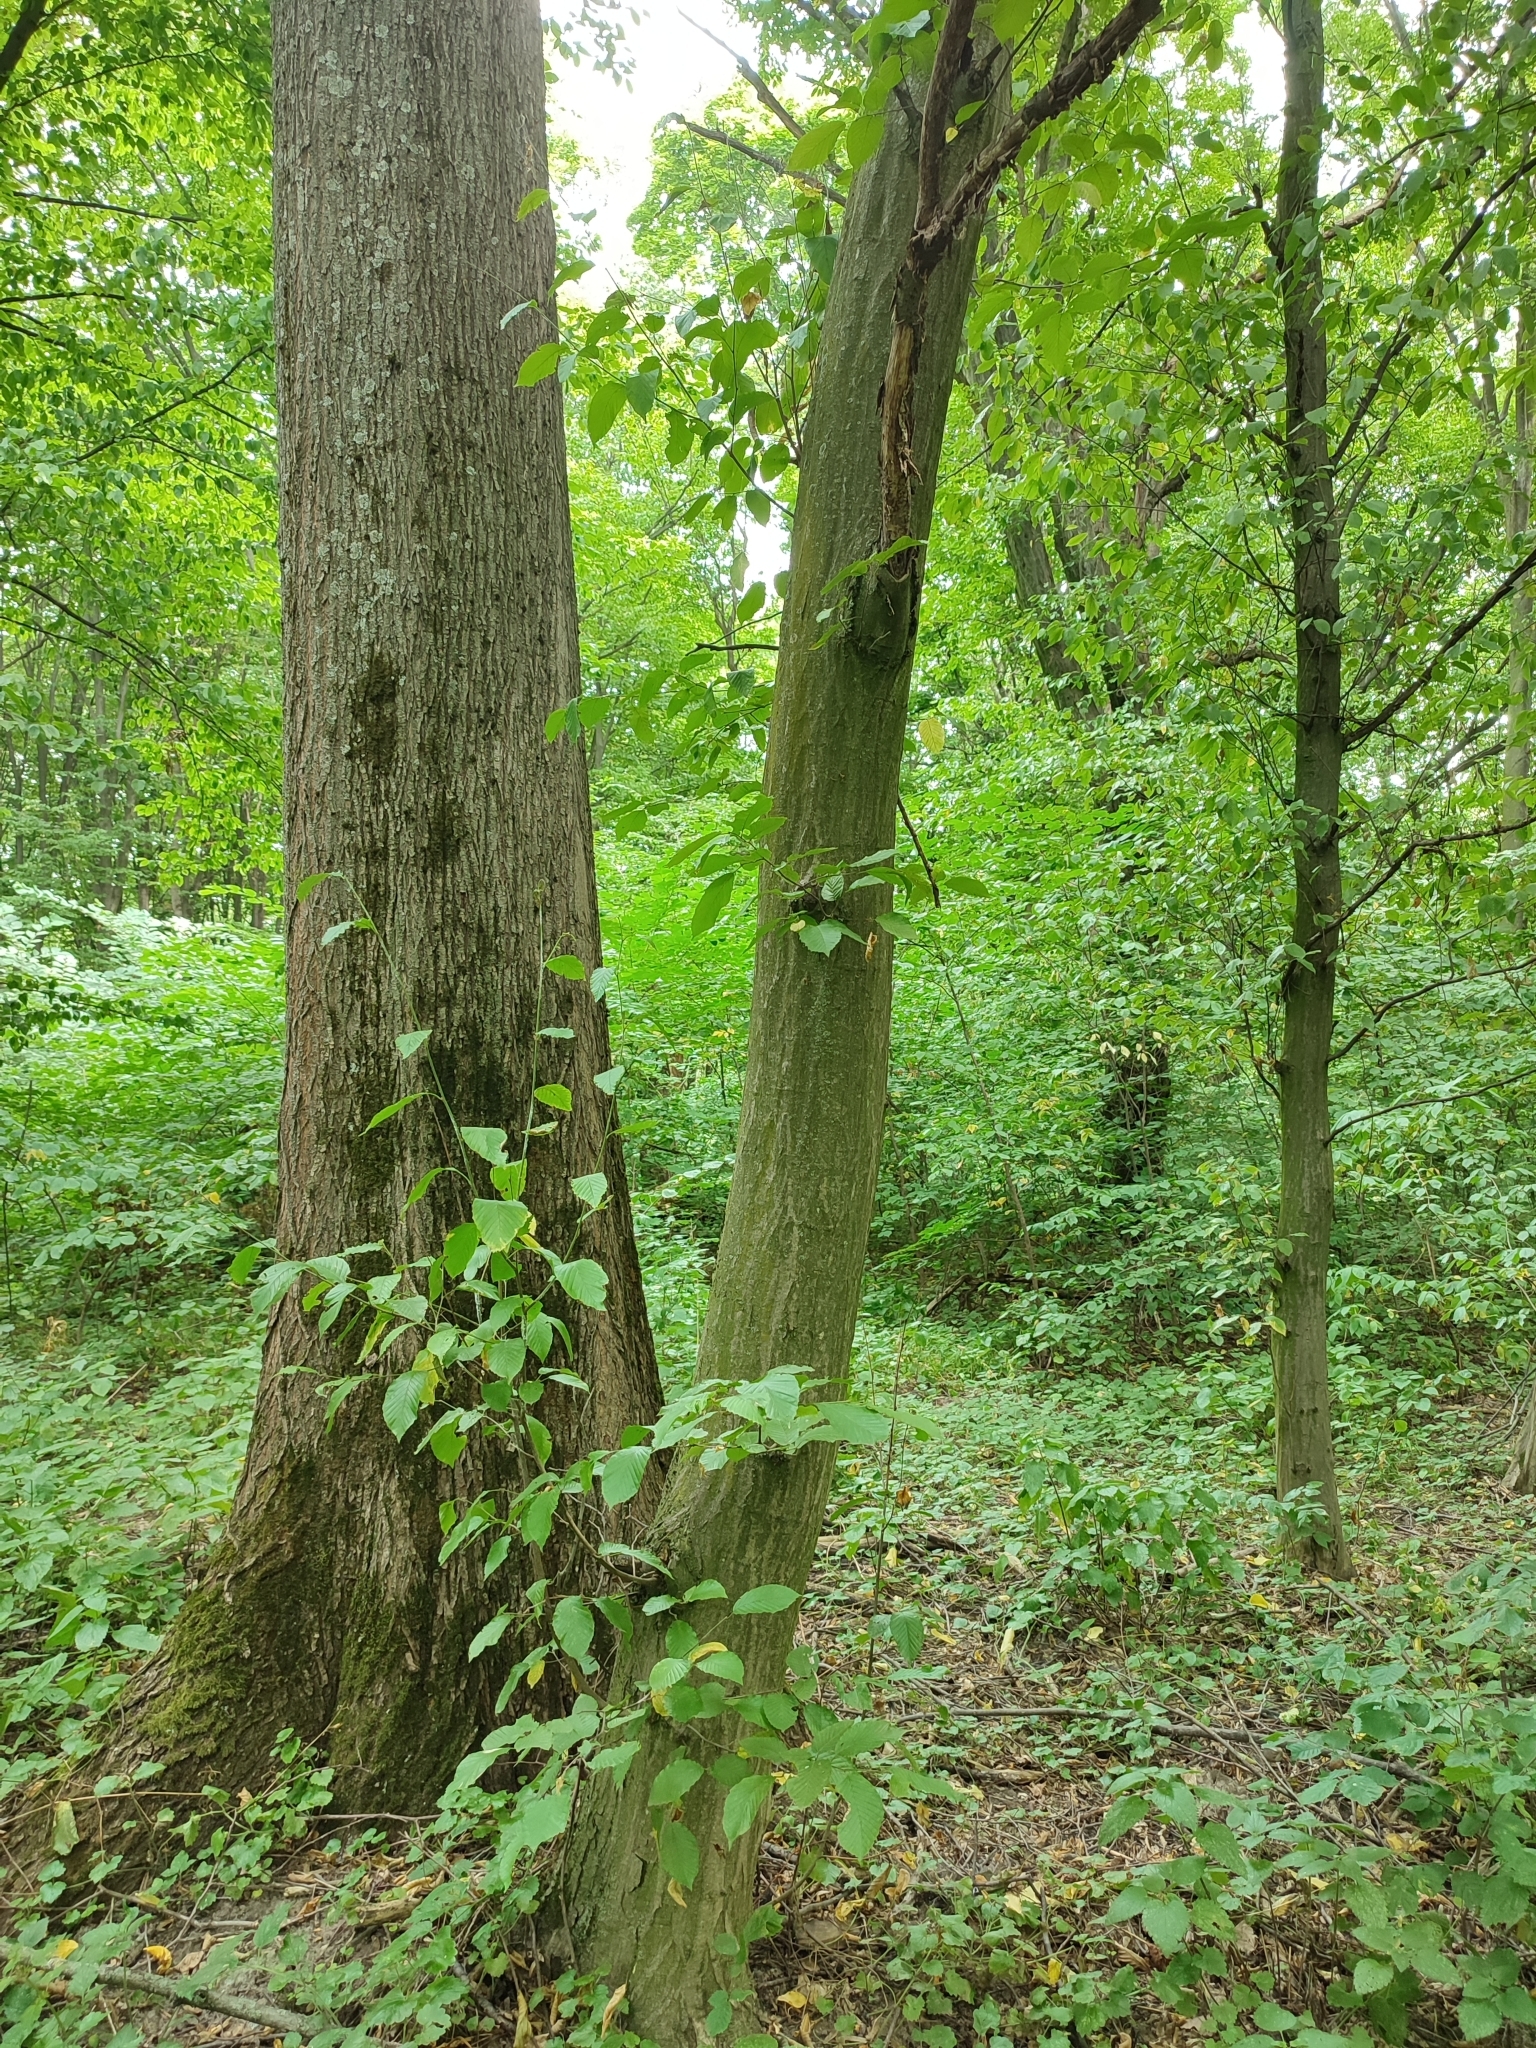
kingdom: Plantae
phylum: Tracheophyta
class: Magnoliopsida
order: Fagales
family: Betulaceae
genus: Carpinus
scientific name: Carpinus betulus
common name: Hornbeam
